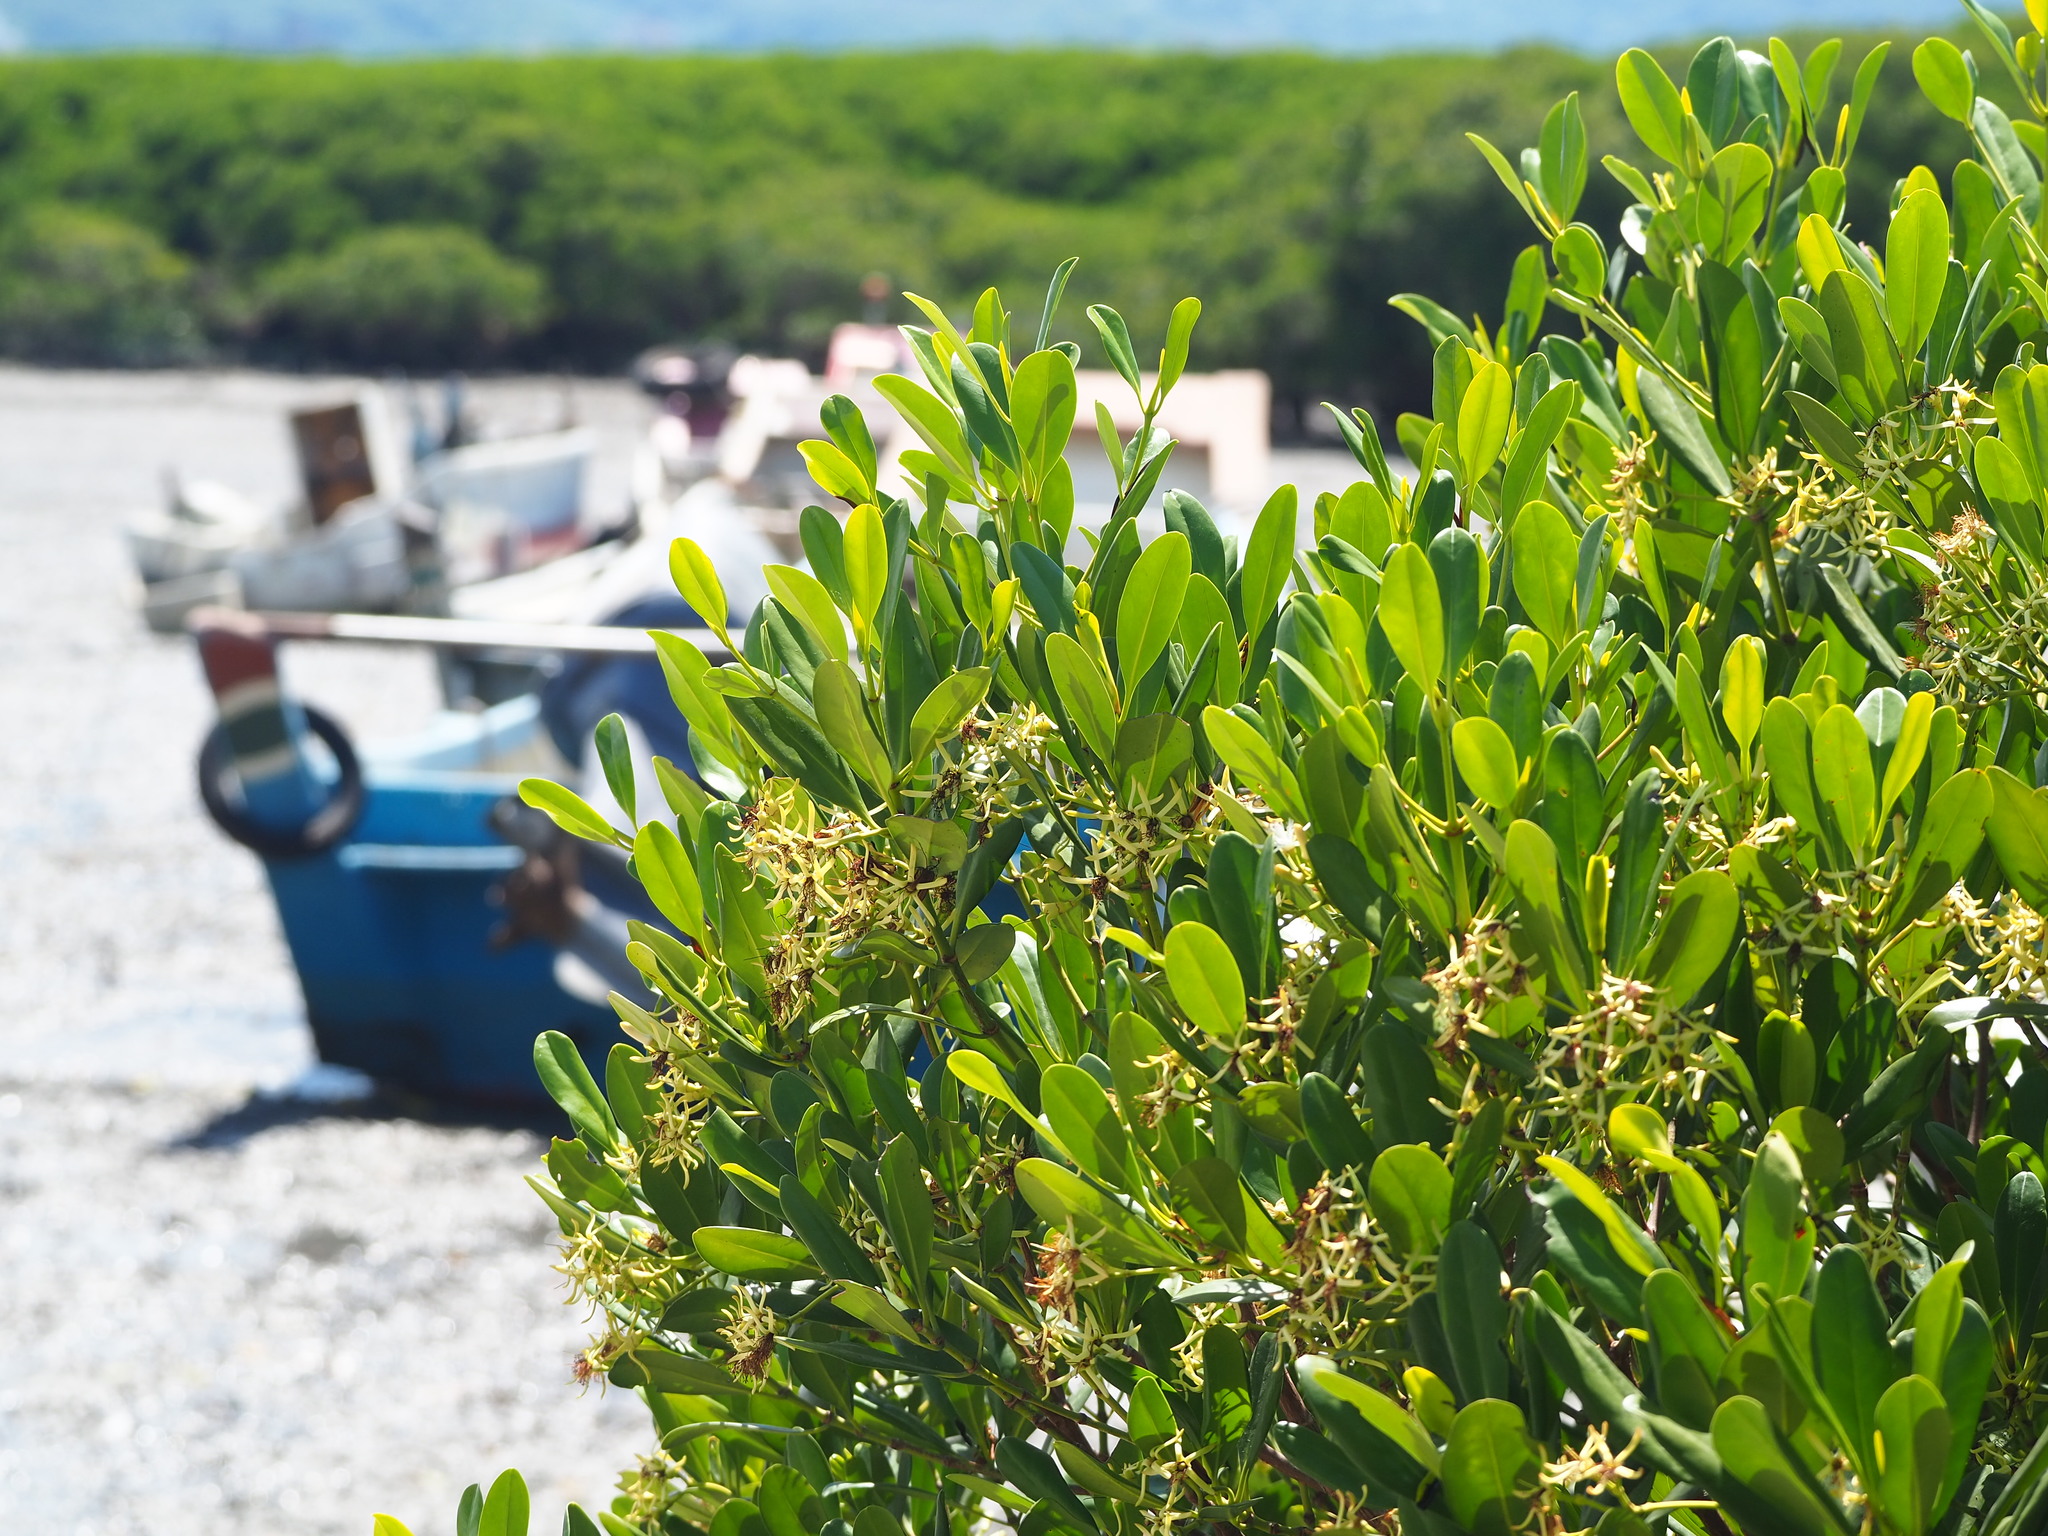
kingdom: Plantae
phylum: Tracheophyta
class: Magnoliopsida
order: Malpighiales
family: Rhizophoraceae
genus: Kandelia
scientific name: Kandelia obovata
